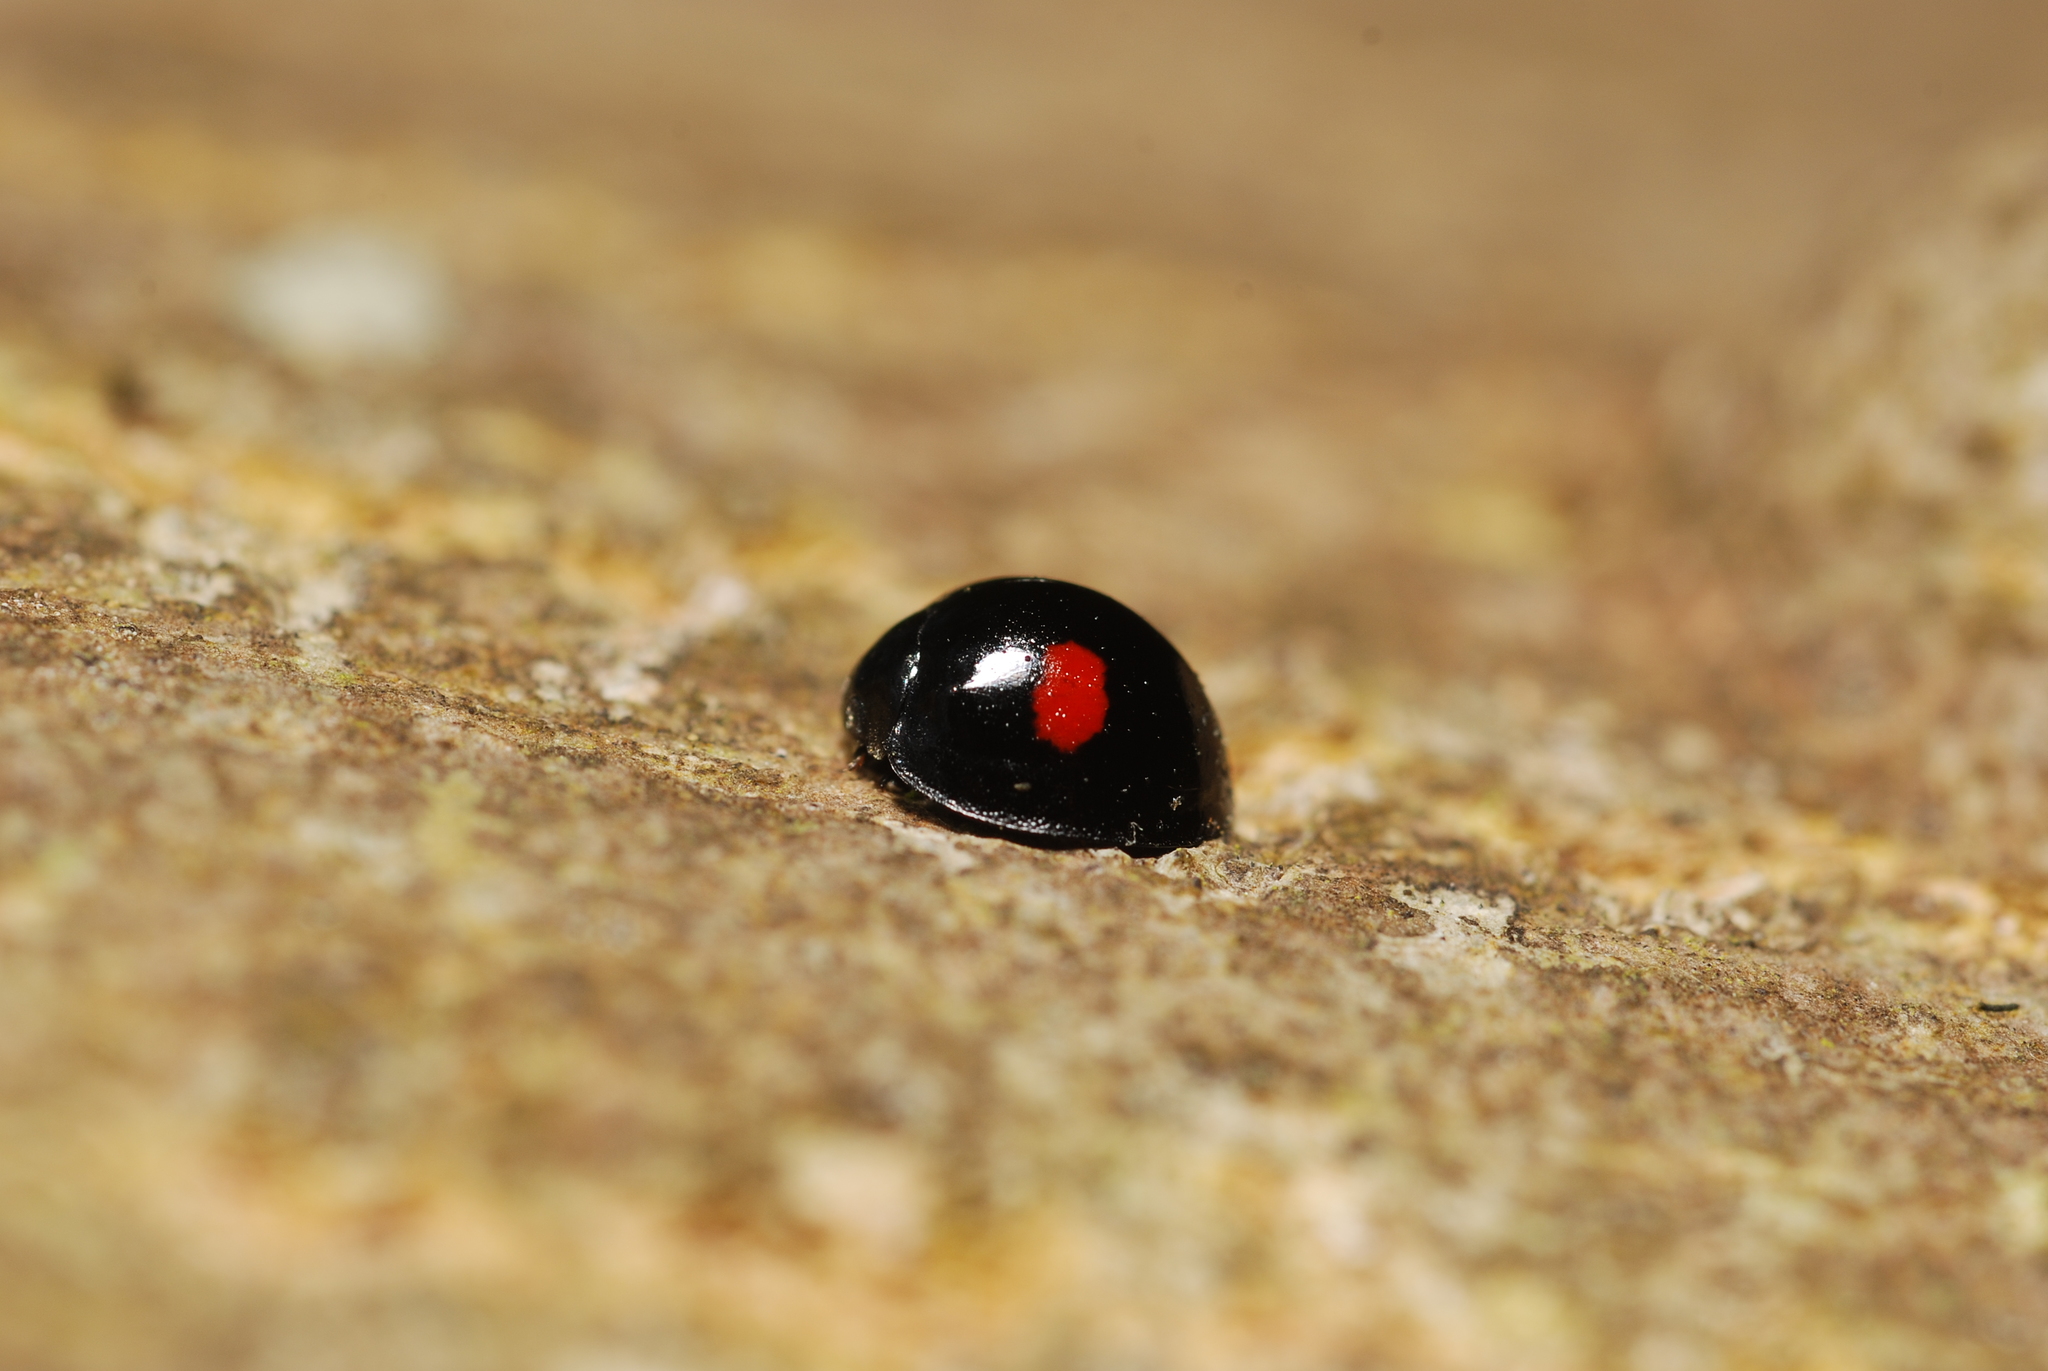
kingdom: Animalia
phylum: Arthropoda
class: Insecta
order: Coleoptera
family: Coccinellidae
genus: Chilocorus
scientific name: Chilocorus renipustulatus
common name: Kidney-spot ladybird
